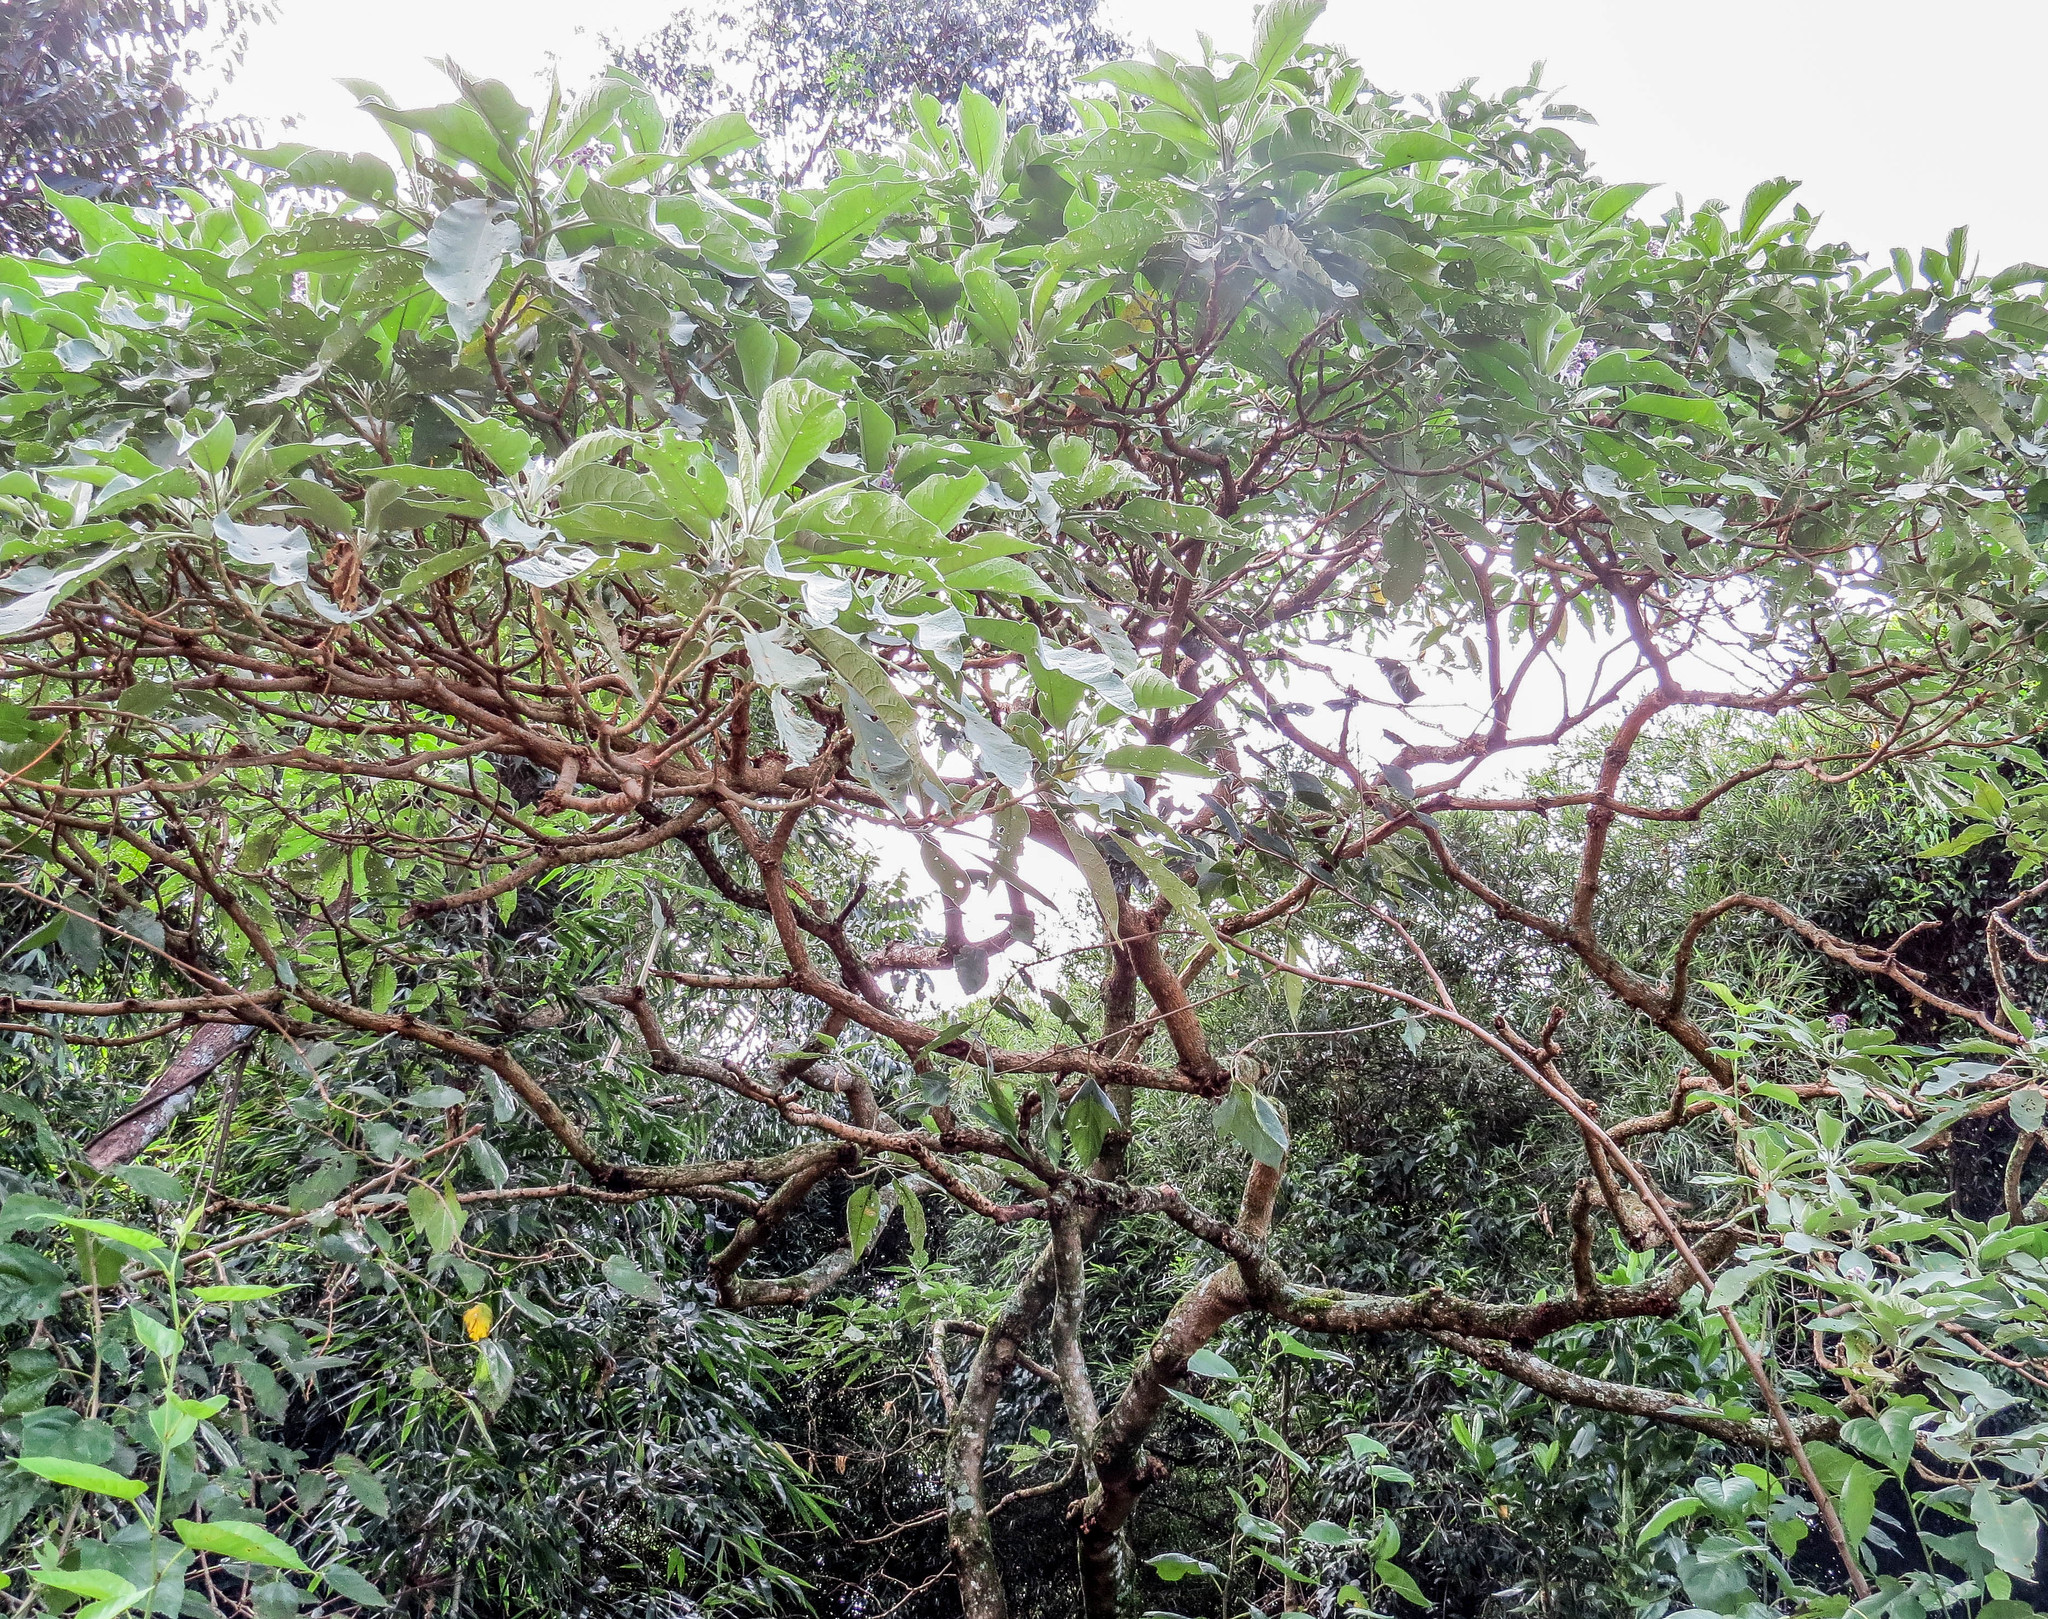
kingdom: Plantae
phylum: Tracheophyta
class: Magnoliopsida
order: Solanales
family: Solanaceae
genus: Solanum
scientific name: Solanum mauritianum
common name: Earleaf nightshade
